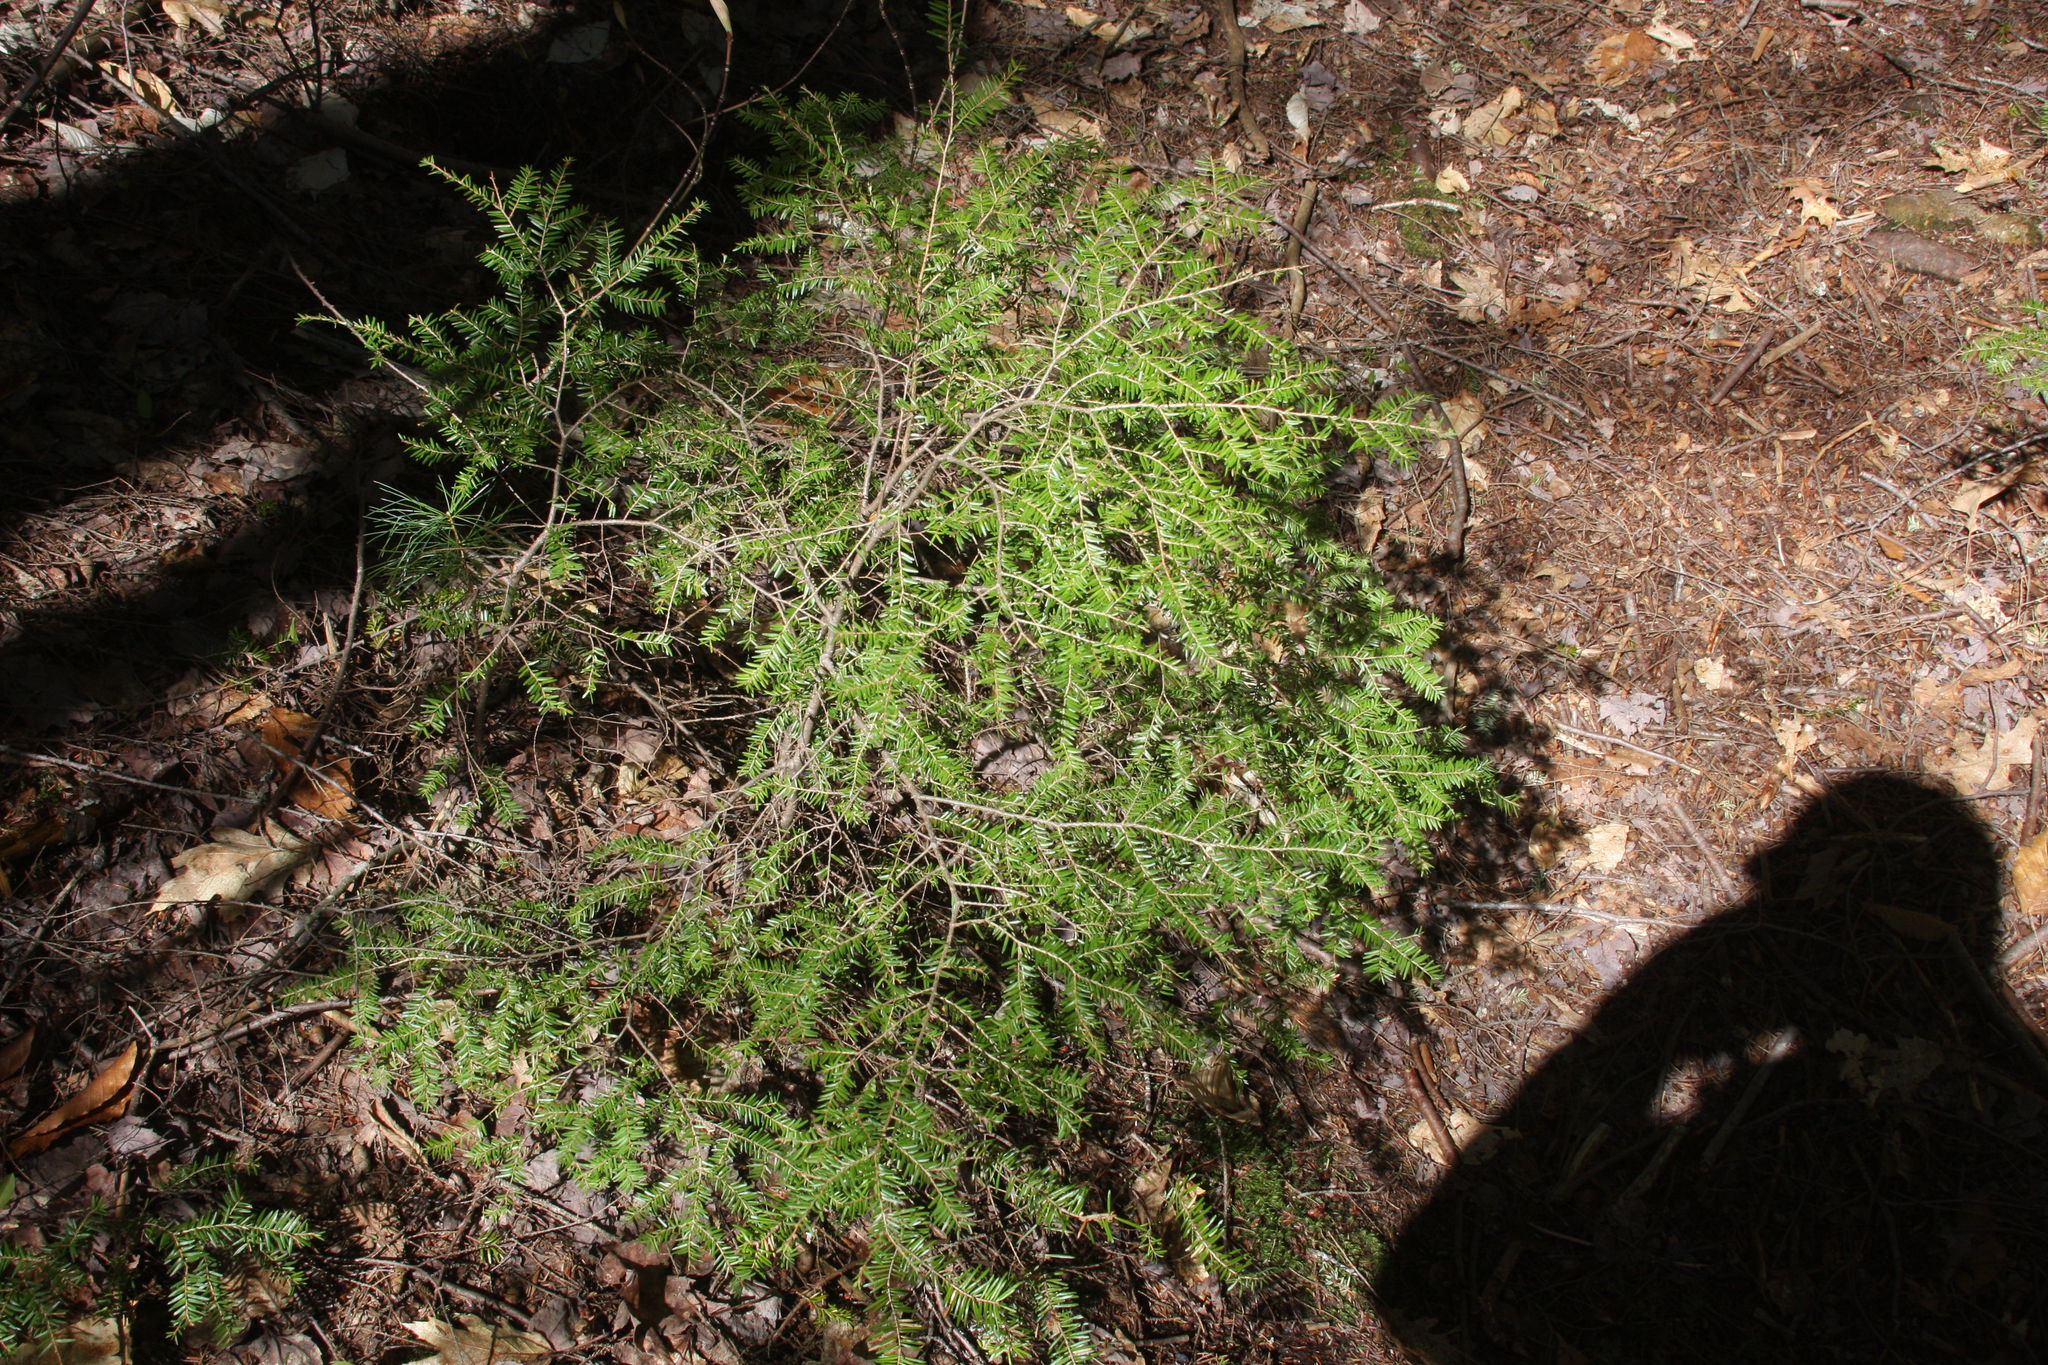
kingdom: Plantae
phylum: Tracheophyta
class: Pinopsida
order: Pinales
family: Pinaceae
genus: Tsuga
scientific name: Tsuga canadensis
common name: Eastern hemlock
